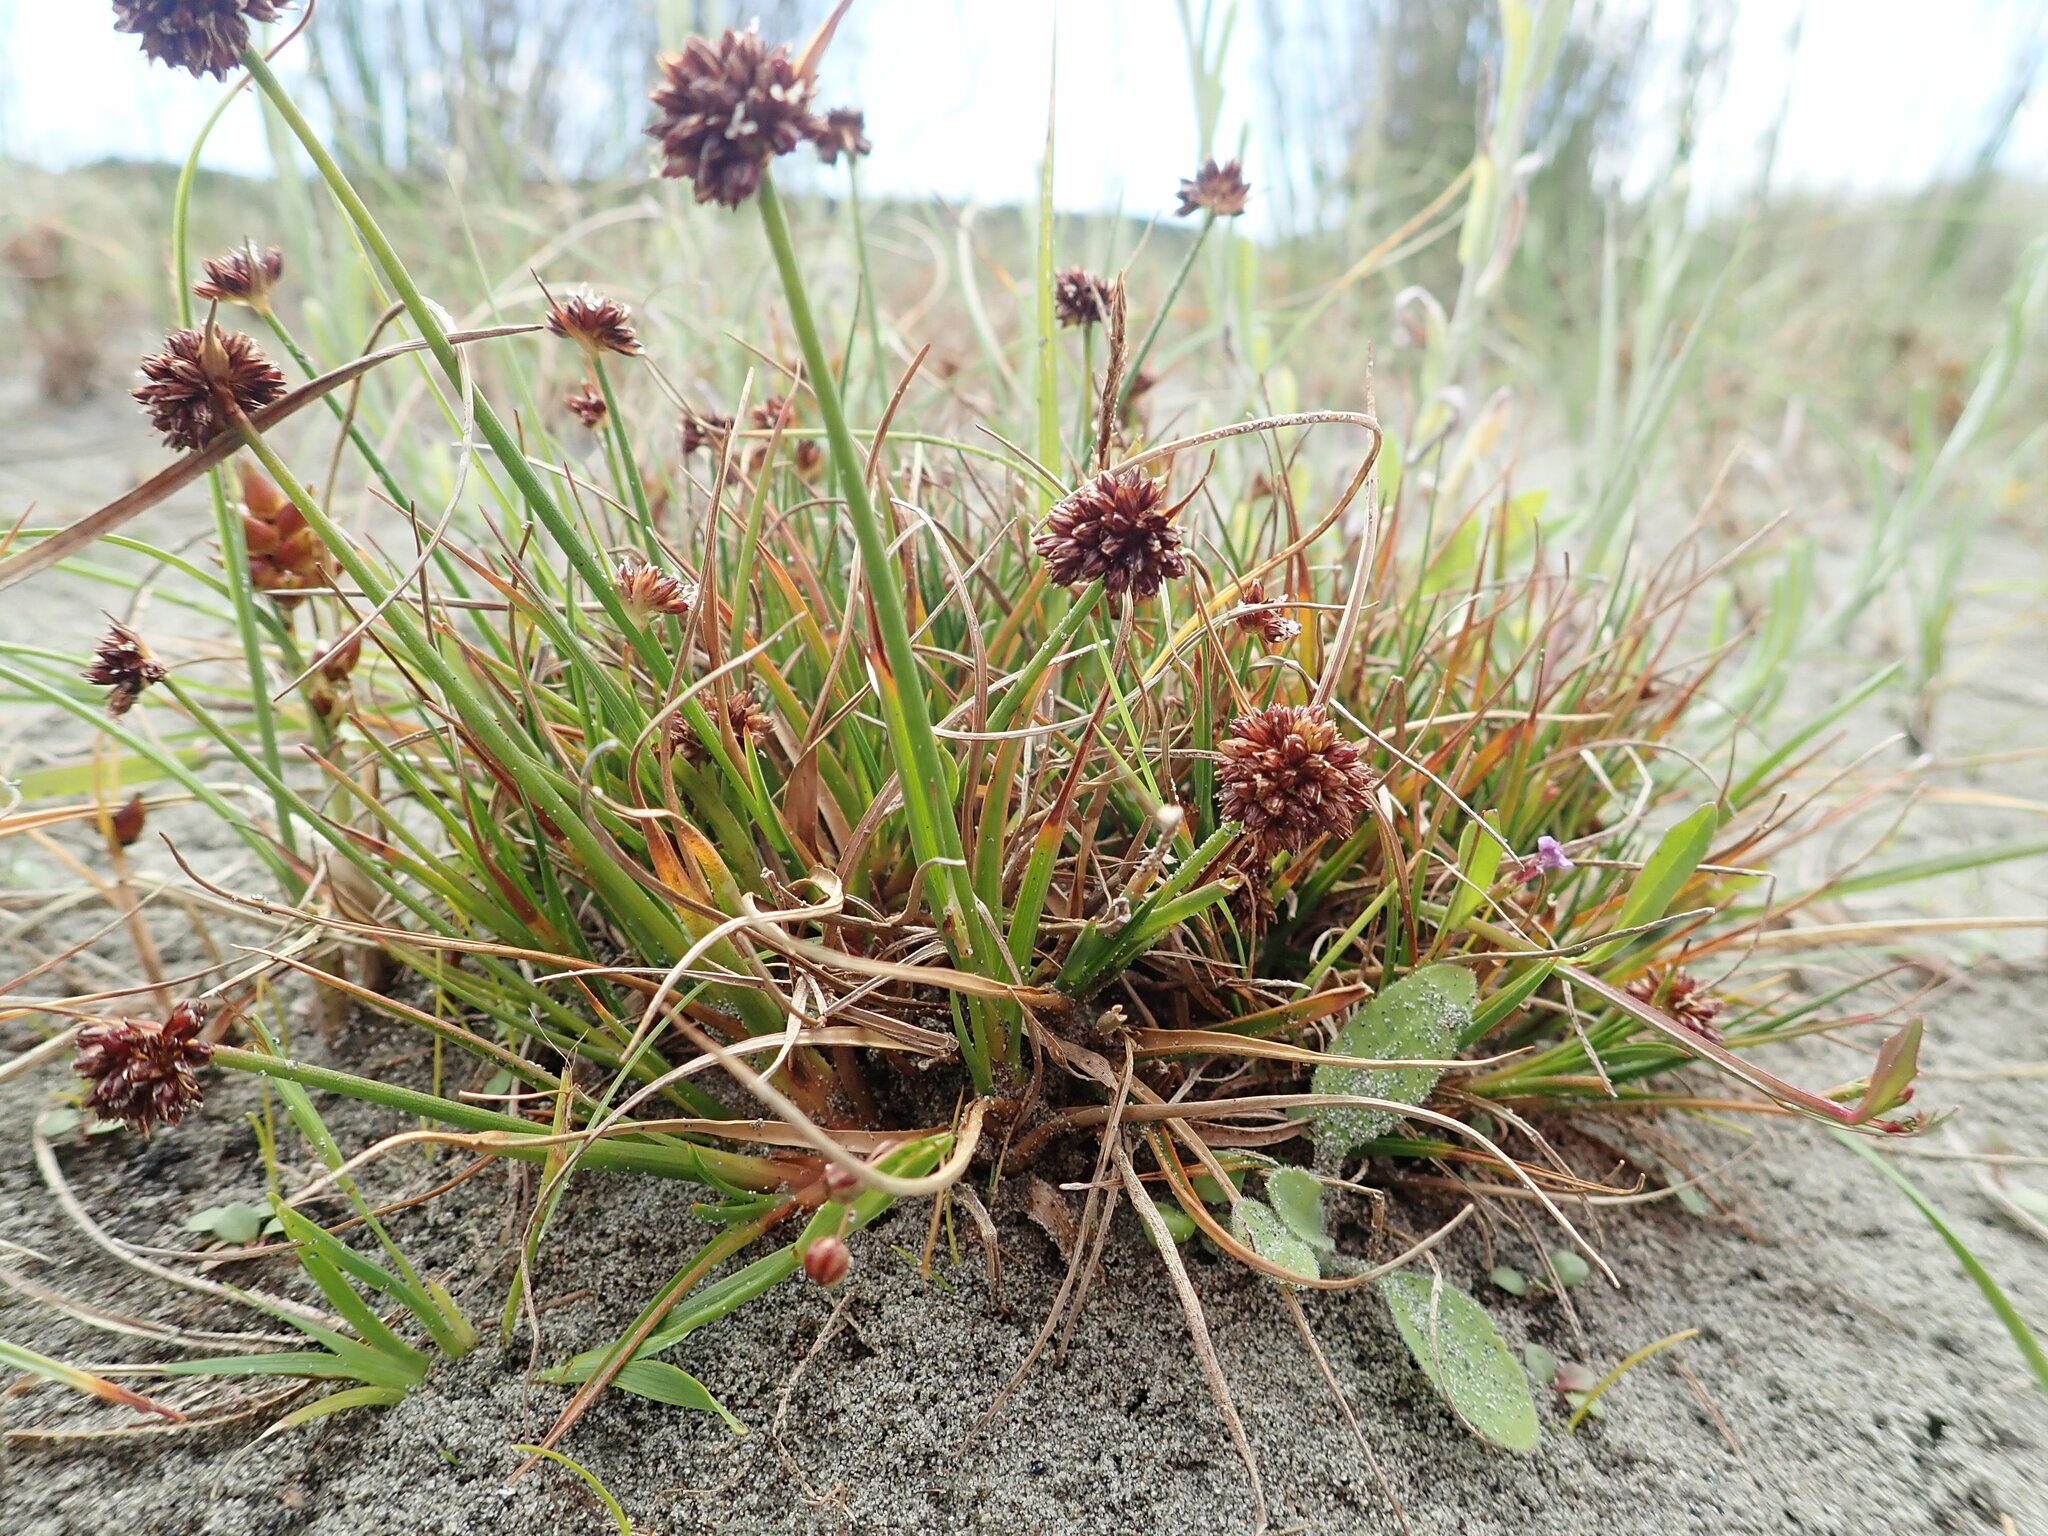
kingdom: Plantae
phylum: Tracheophyta
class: Liliopsida
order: Poales
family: Juncaceae
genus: Juncus
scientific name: Juncus caespiticius
